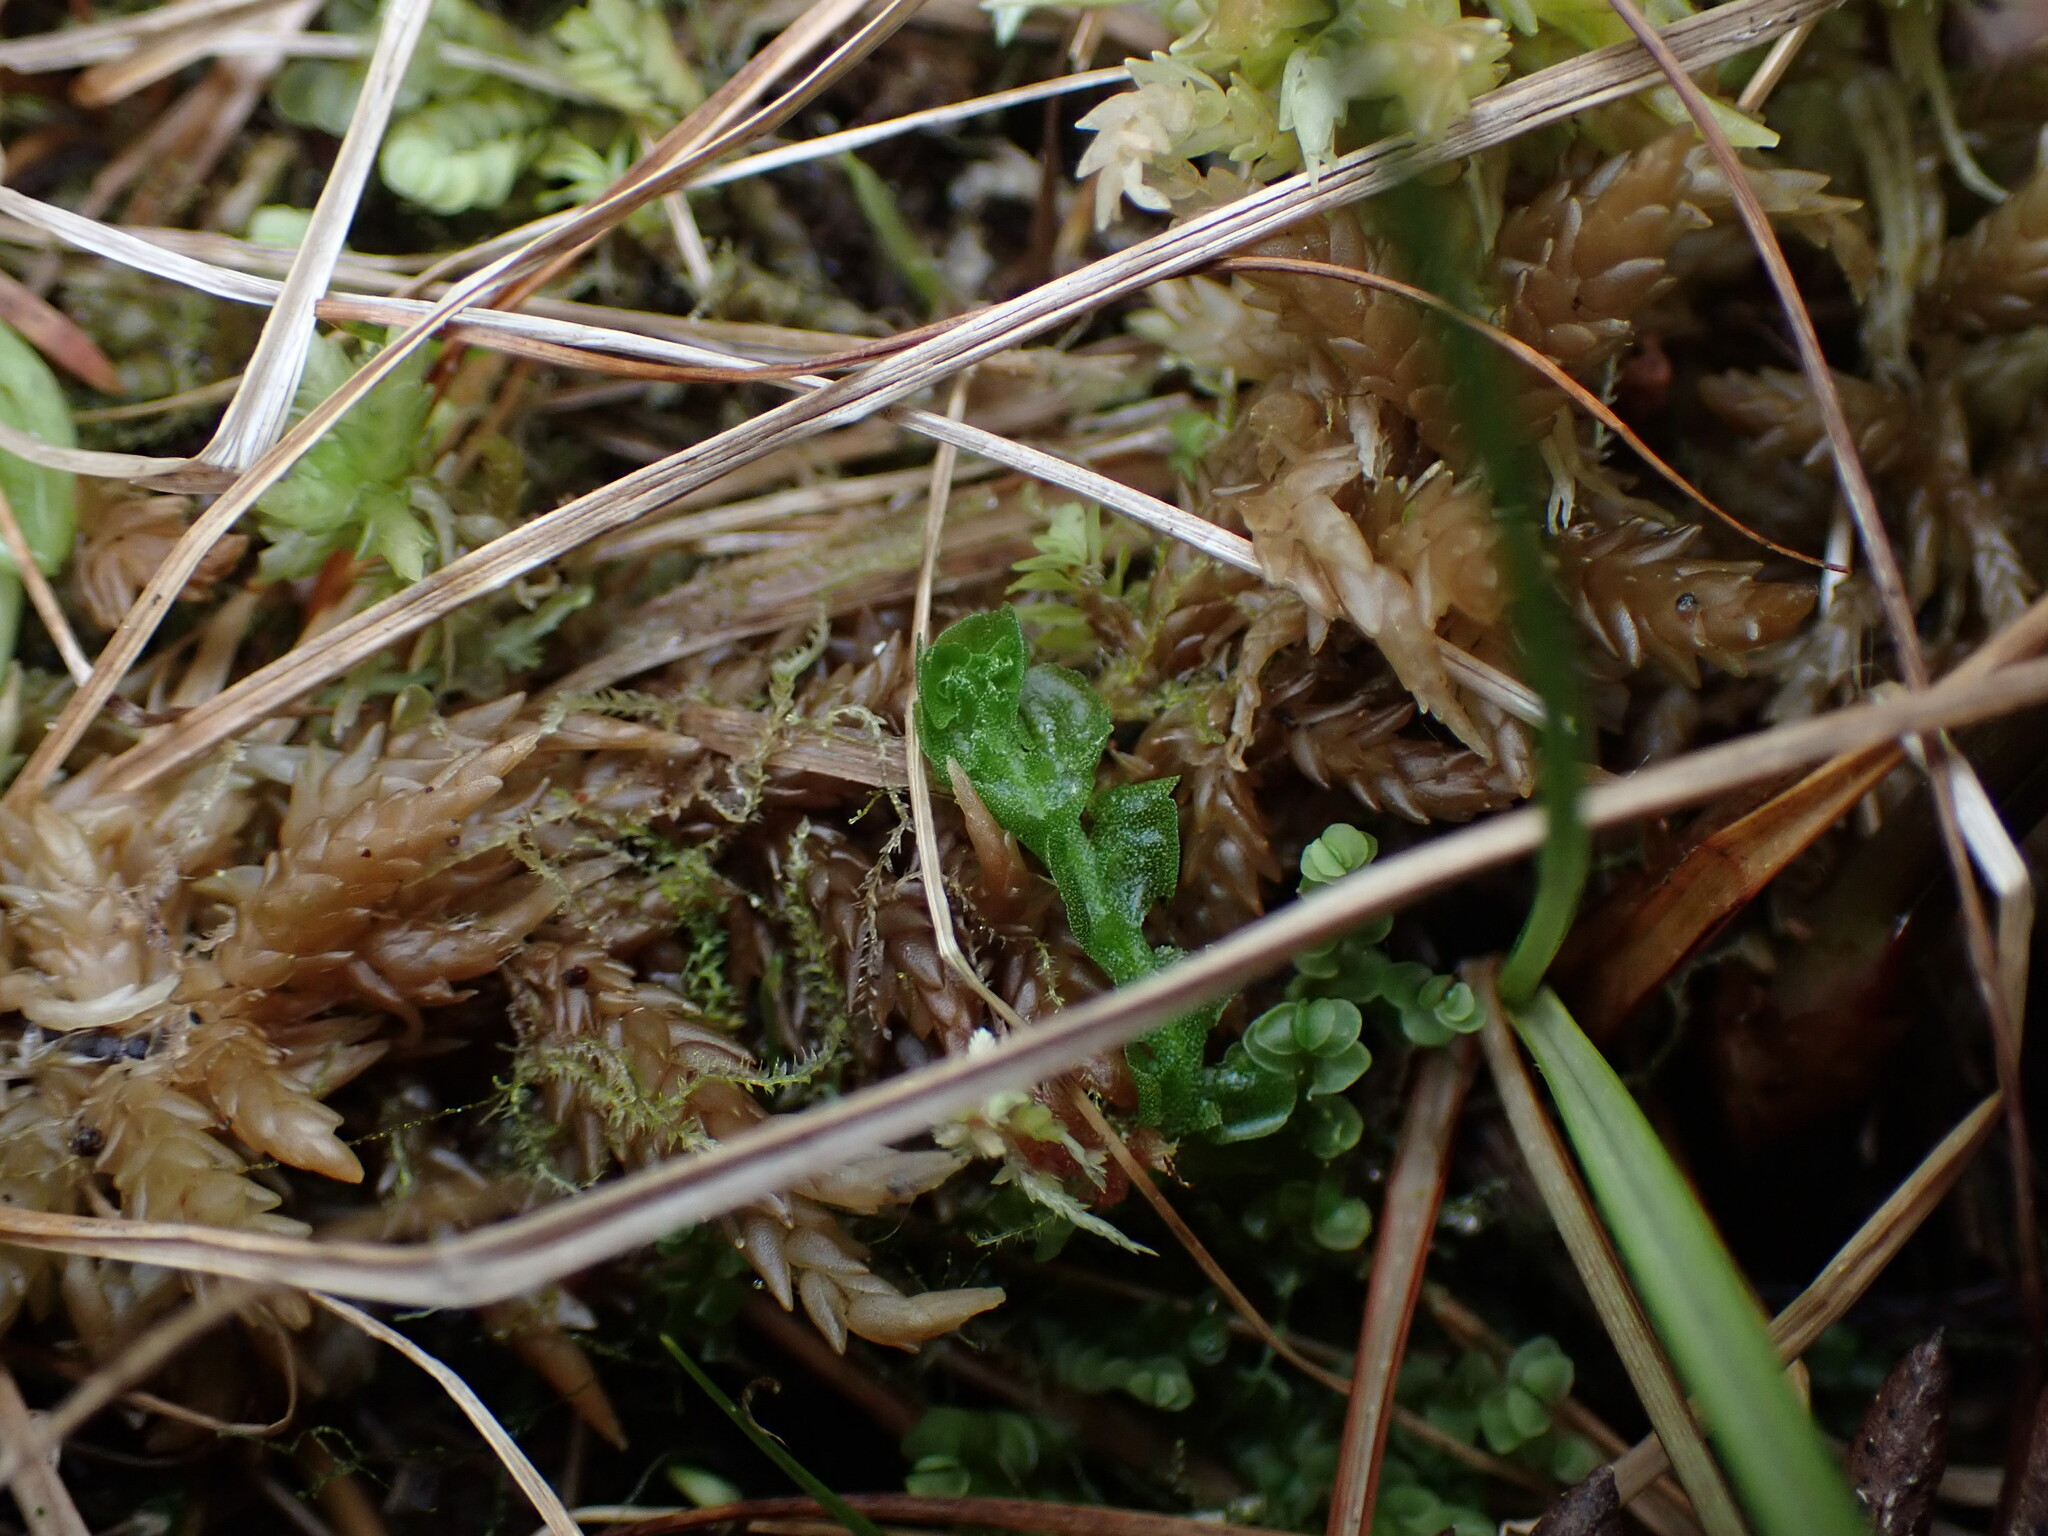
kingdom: Plantae
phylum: Marchantiophyta
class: Haplomitriopsida
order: Treubiales
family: Treubiaceae
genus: Apotreubia
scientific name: Apotreubia nana
